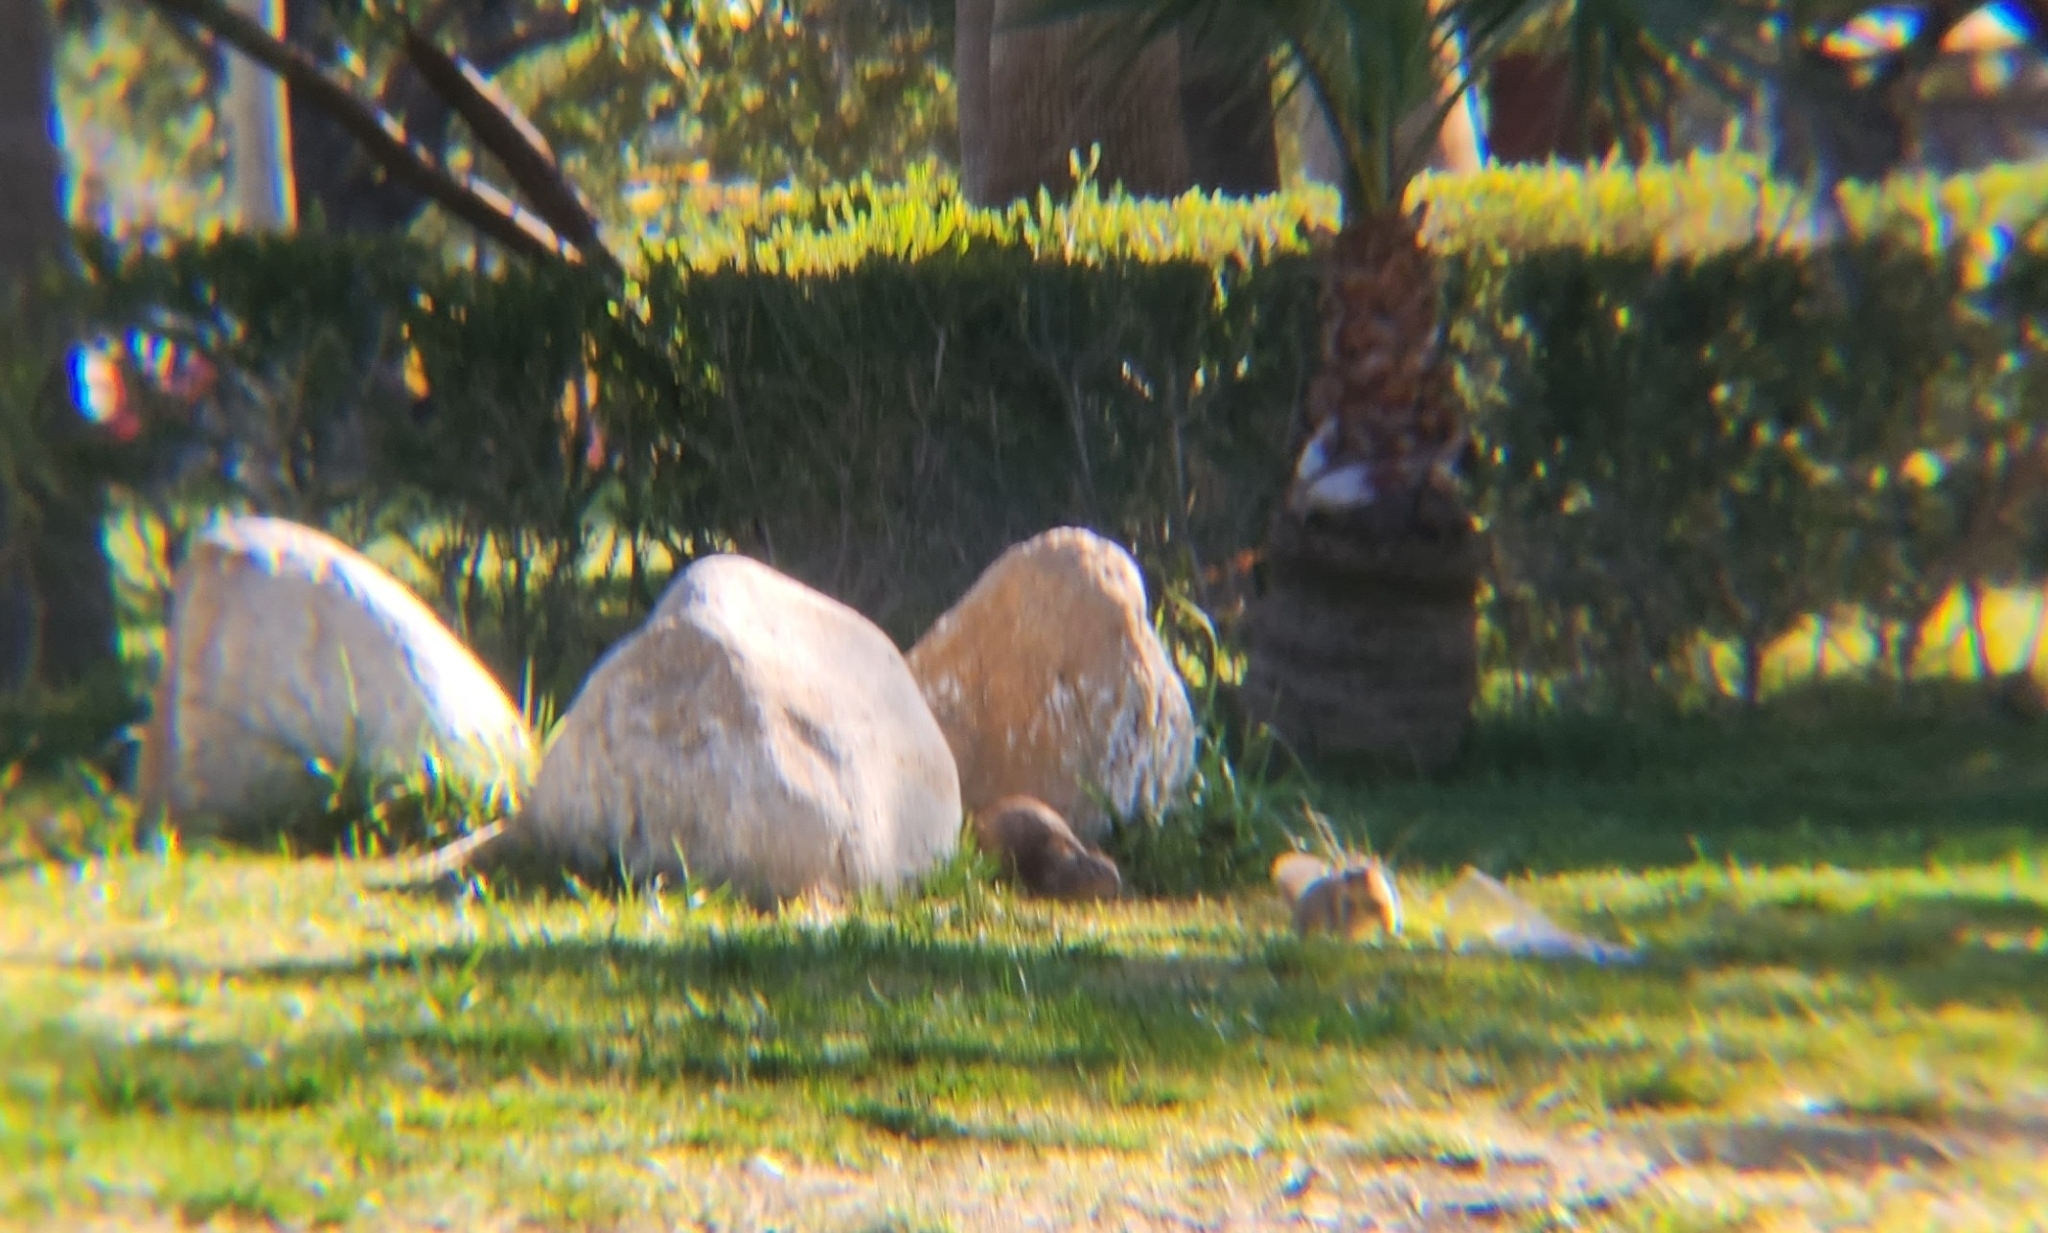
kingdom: Animalia
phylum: Chordata
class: Mammalia
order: Rodentia
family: Sciuridae
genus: Otospermophilus
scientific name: Otospermophilus beecheyi
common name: California ground squirrel
